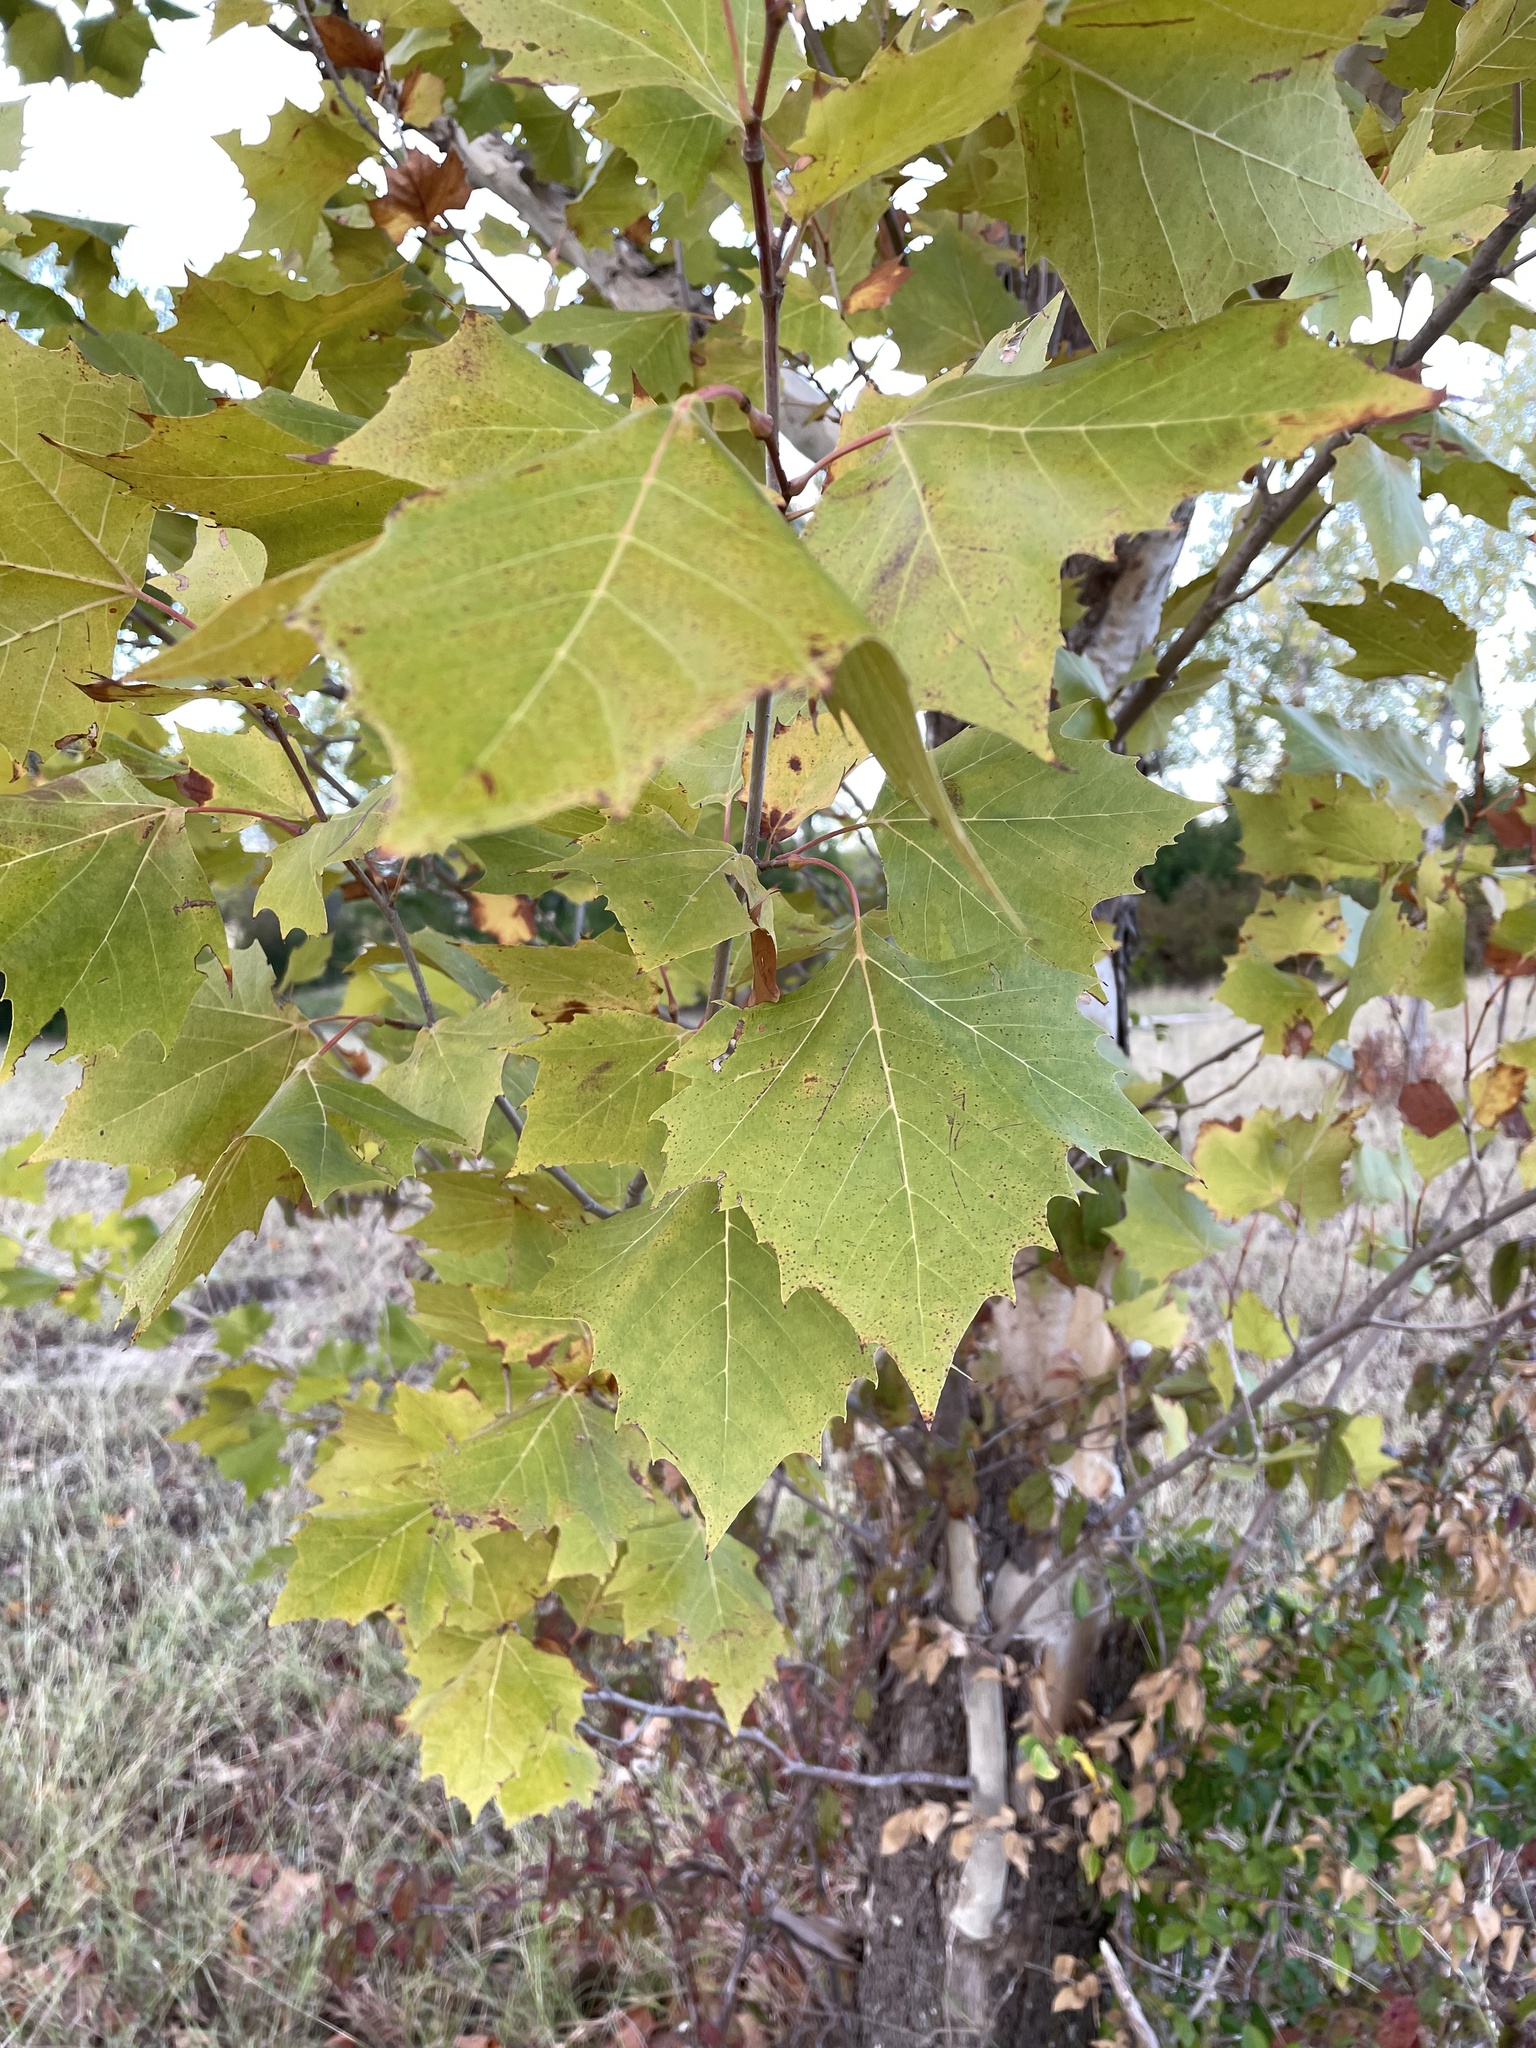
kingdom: Plantae
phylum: Tracheophyta
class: Magnoliopsida
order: Proteales
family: Platanaceae
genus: Platanus
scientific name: Platanus occidentalis
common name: American sycamore
